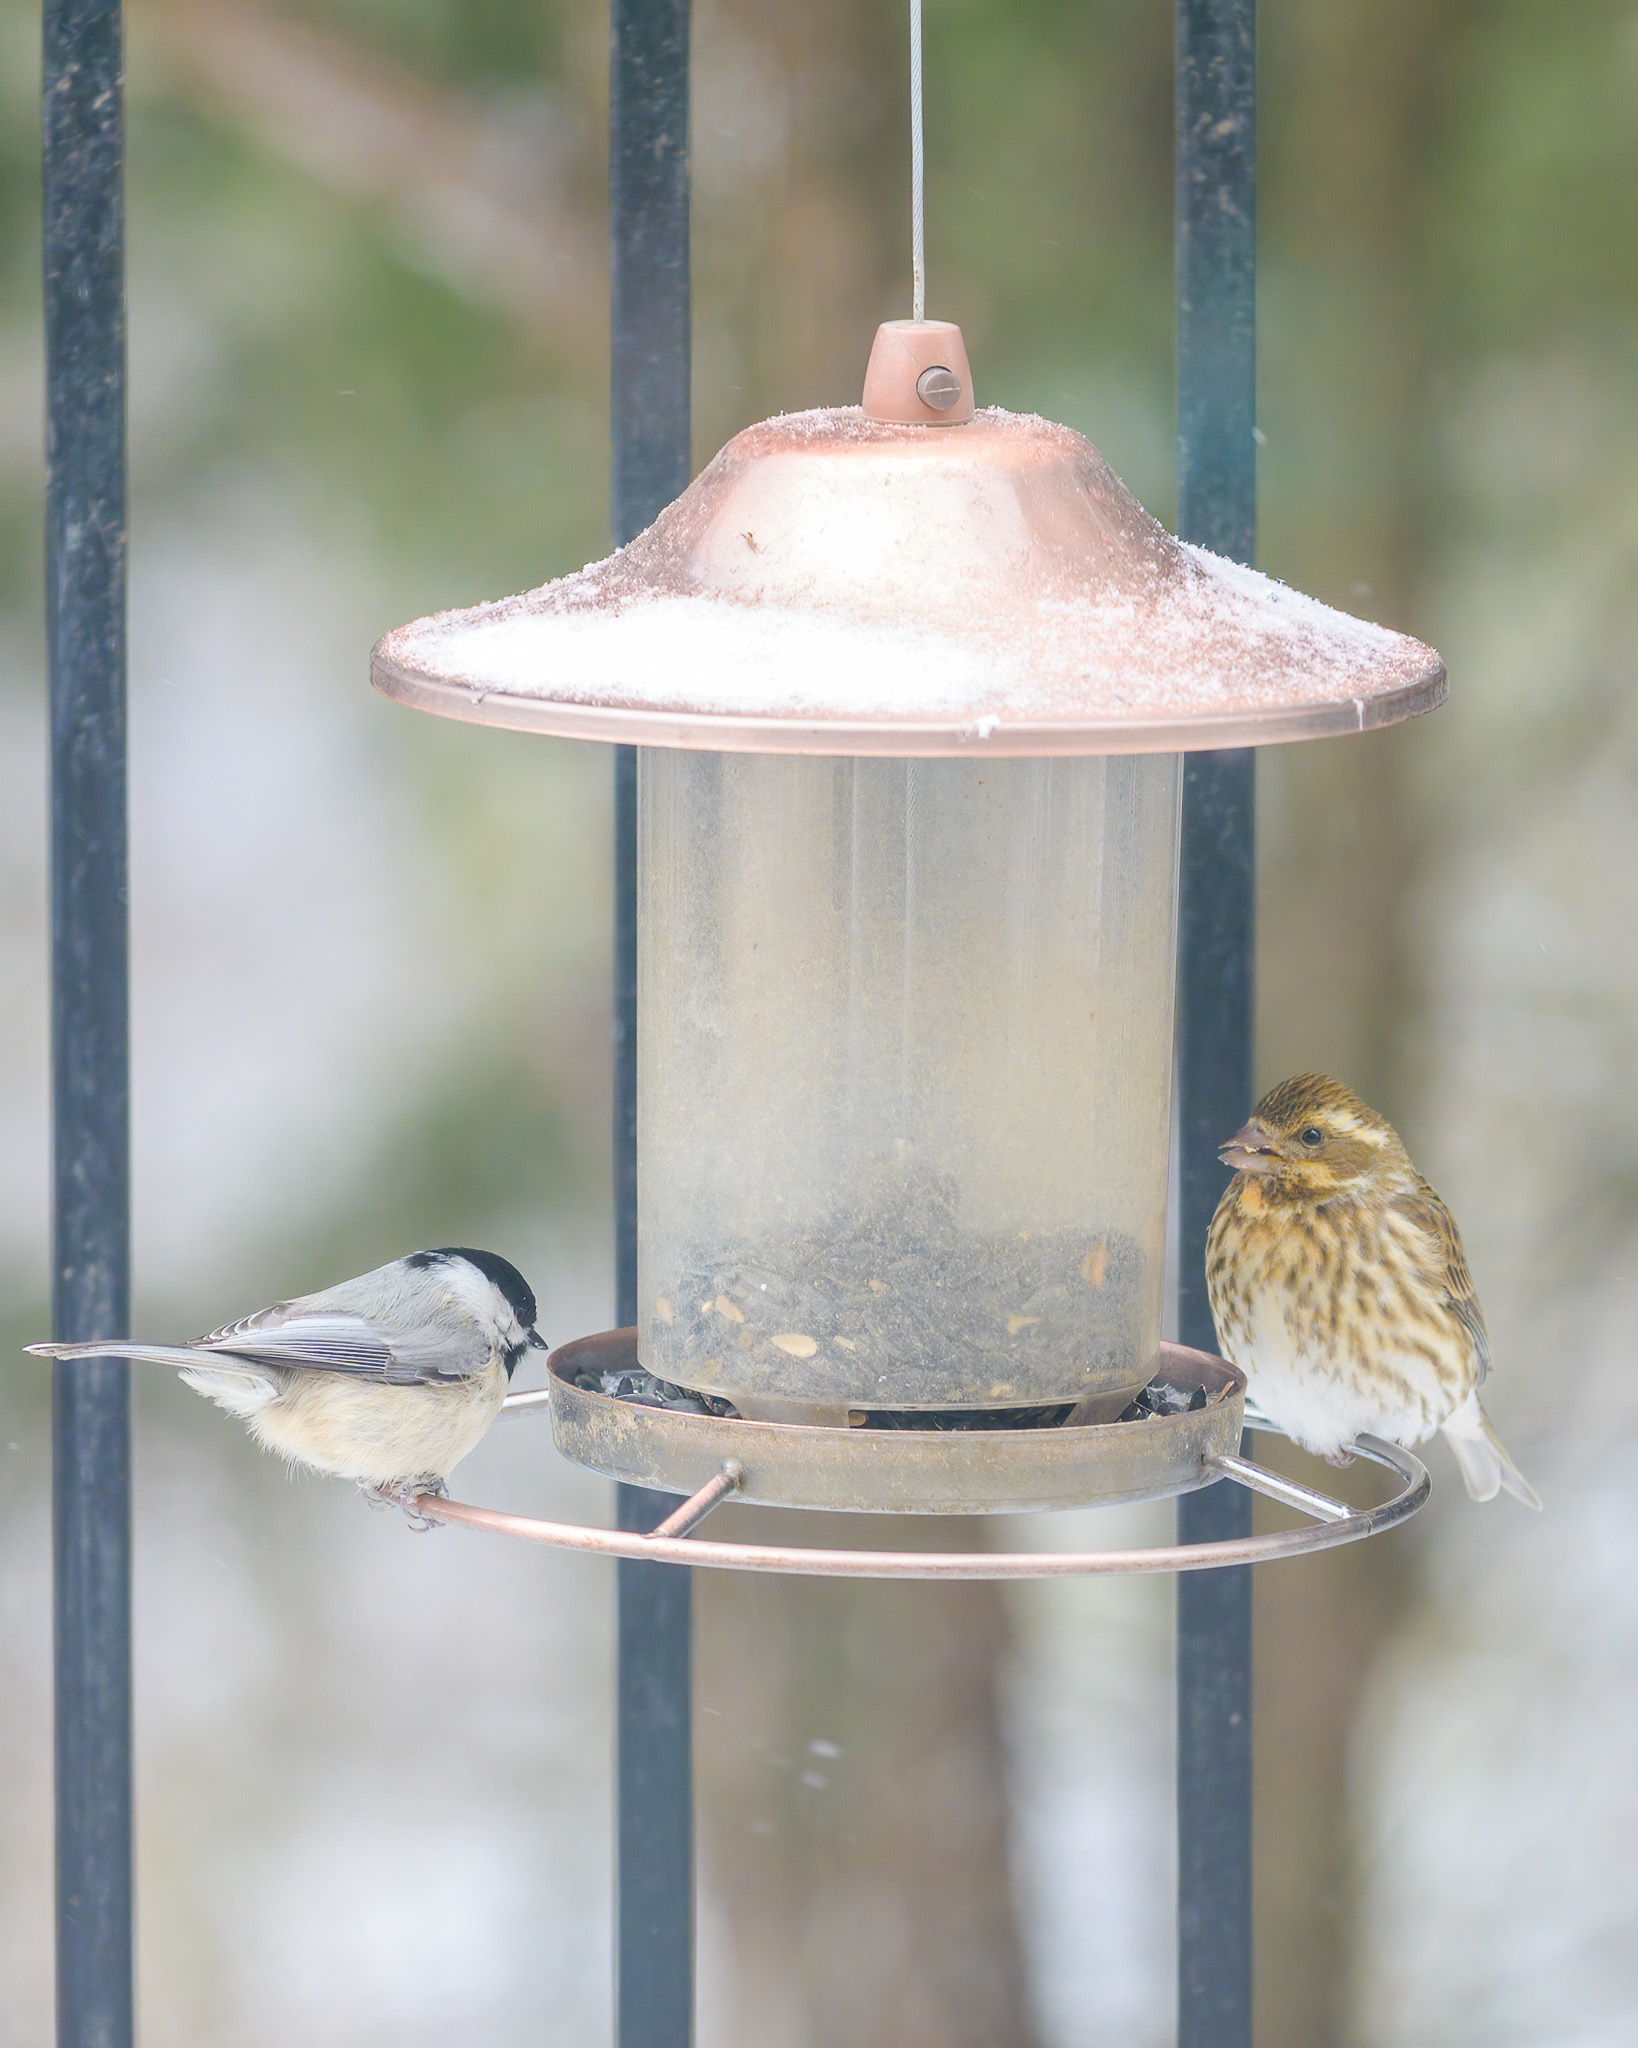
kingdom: Animalia
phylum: Chordata
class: Aves
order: Passeriformes
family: Fringillidae
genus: Haemorhous
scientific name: Haemorhous purpureus
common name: Purple finch
